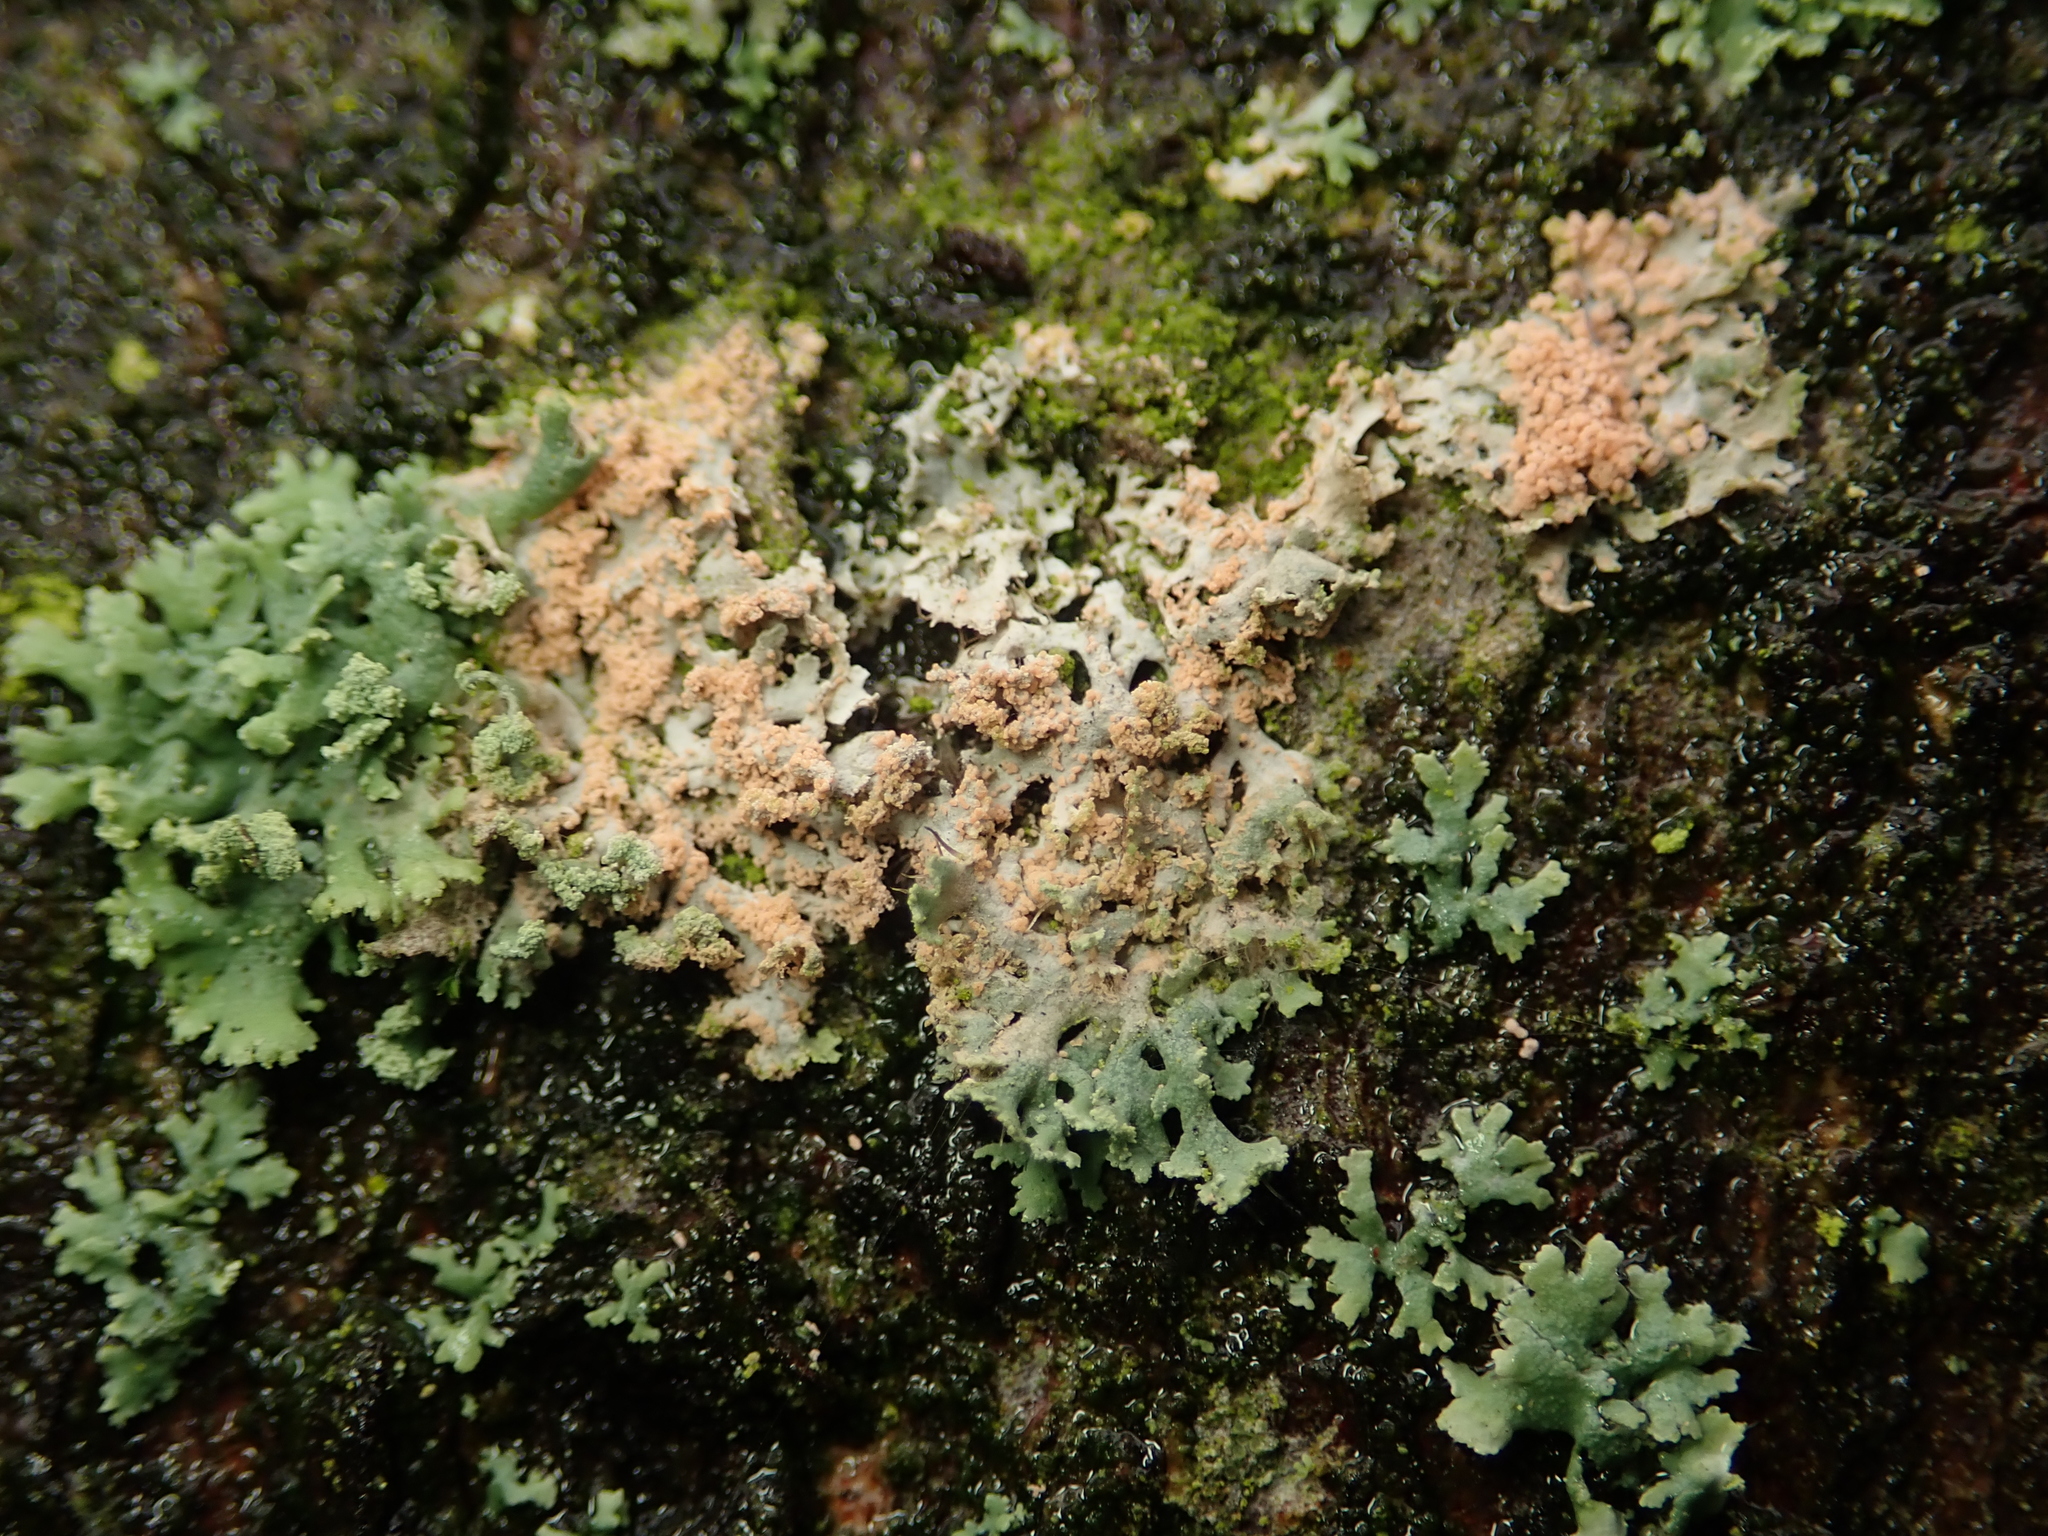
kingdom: Fungi
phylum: Basidiomycota
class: Agaricomycetes
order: Corticiales
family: Corticiaceae
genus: Erythricium
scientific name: Erythricium aurantiacum
